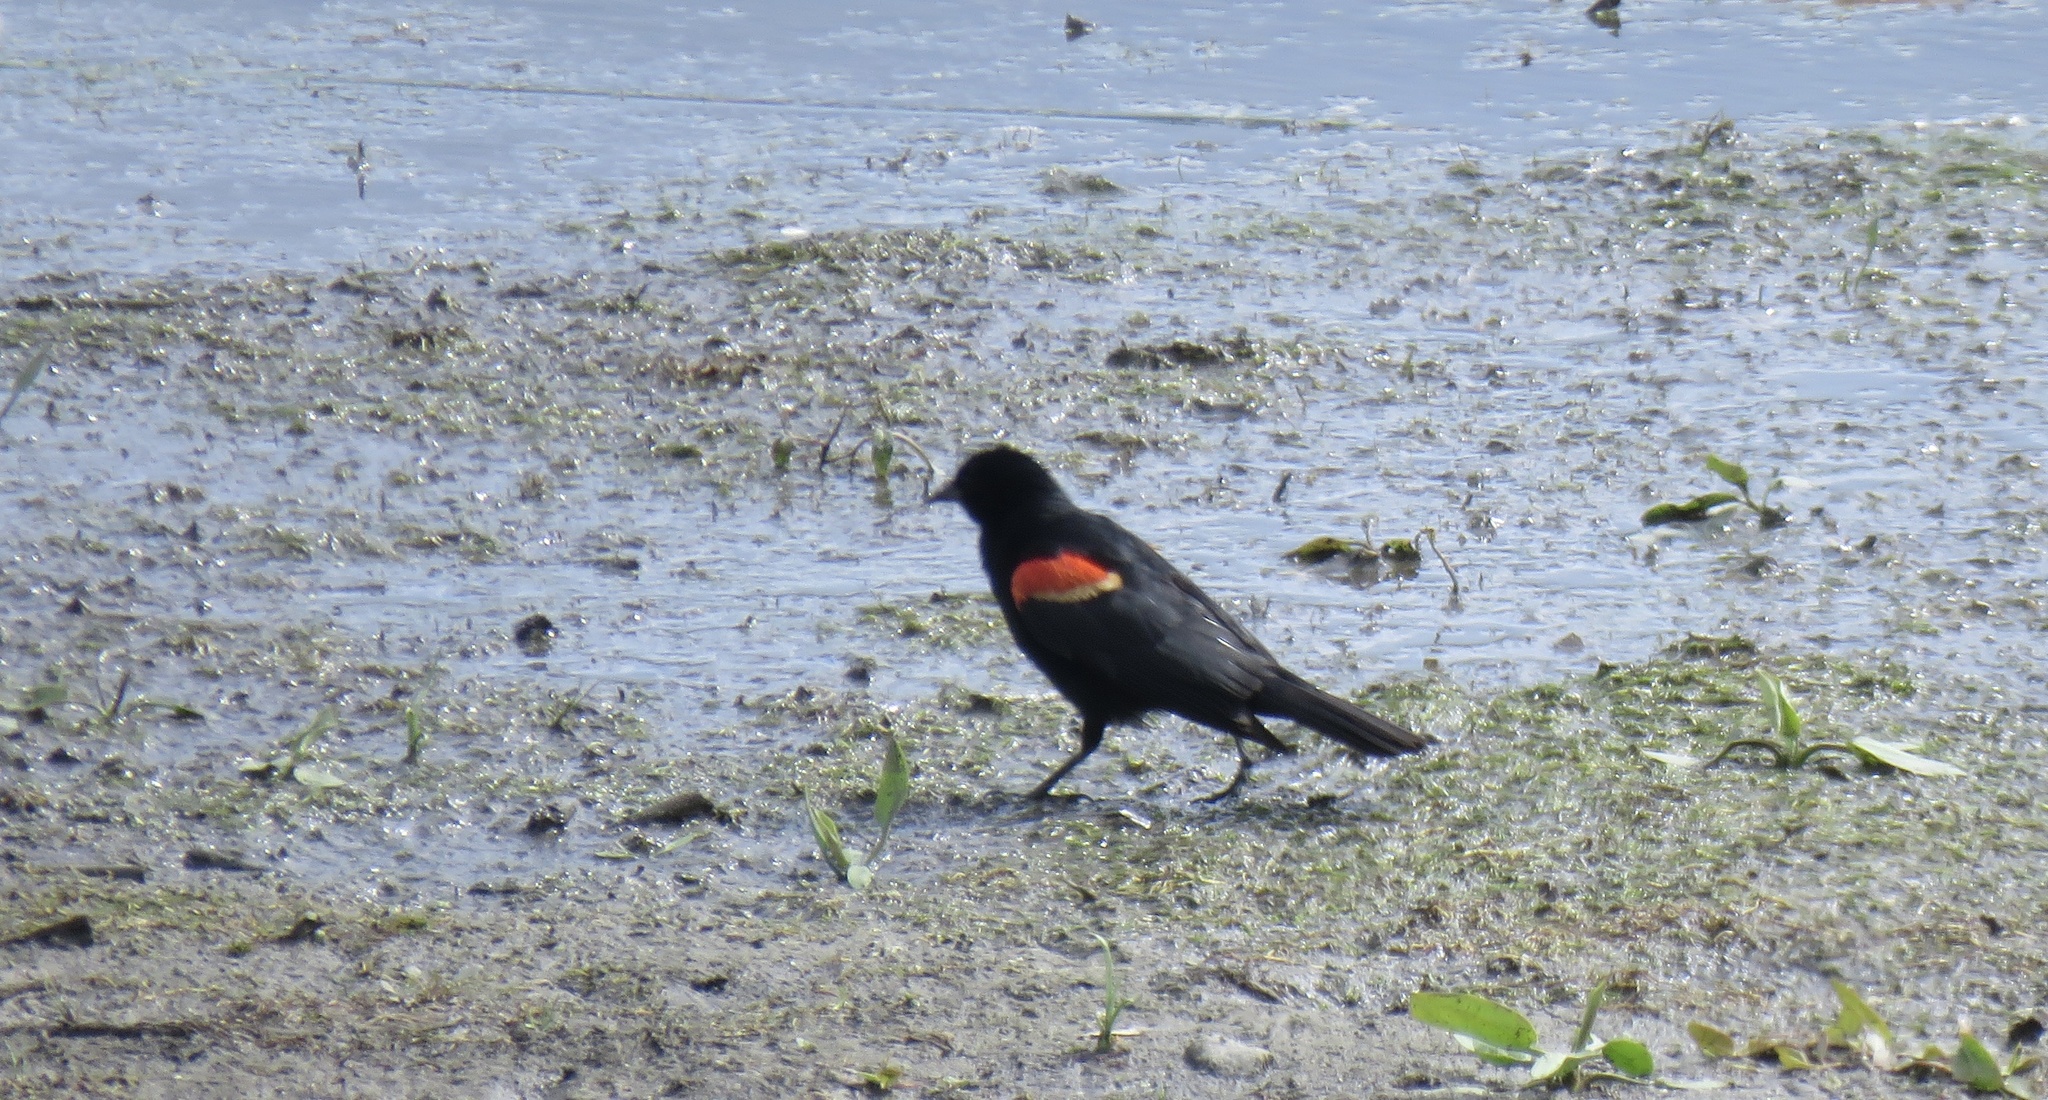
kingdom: Animalia
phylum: Chordata
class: Aves
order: Passeriformes
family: Icteridae
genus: Agelaius
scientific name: Agelaius phoeniceus
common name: Red-winged blackbird
